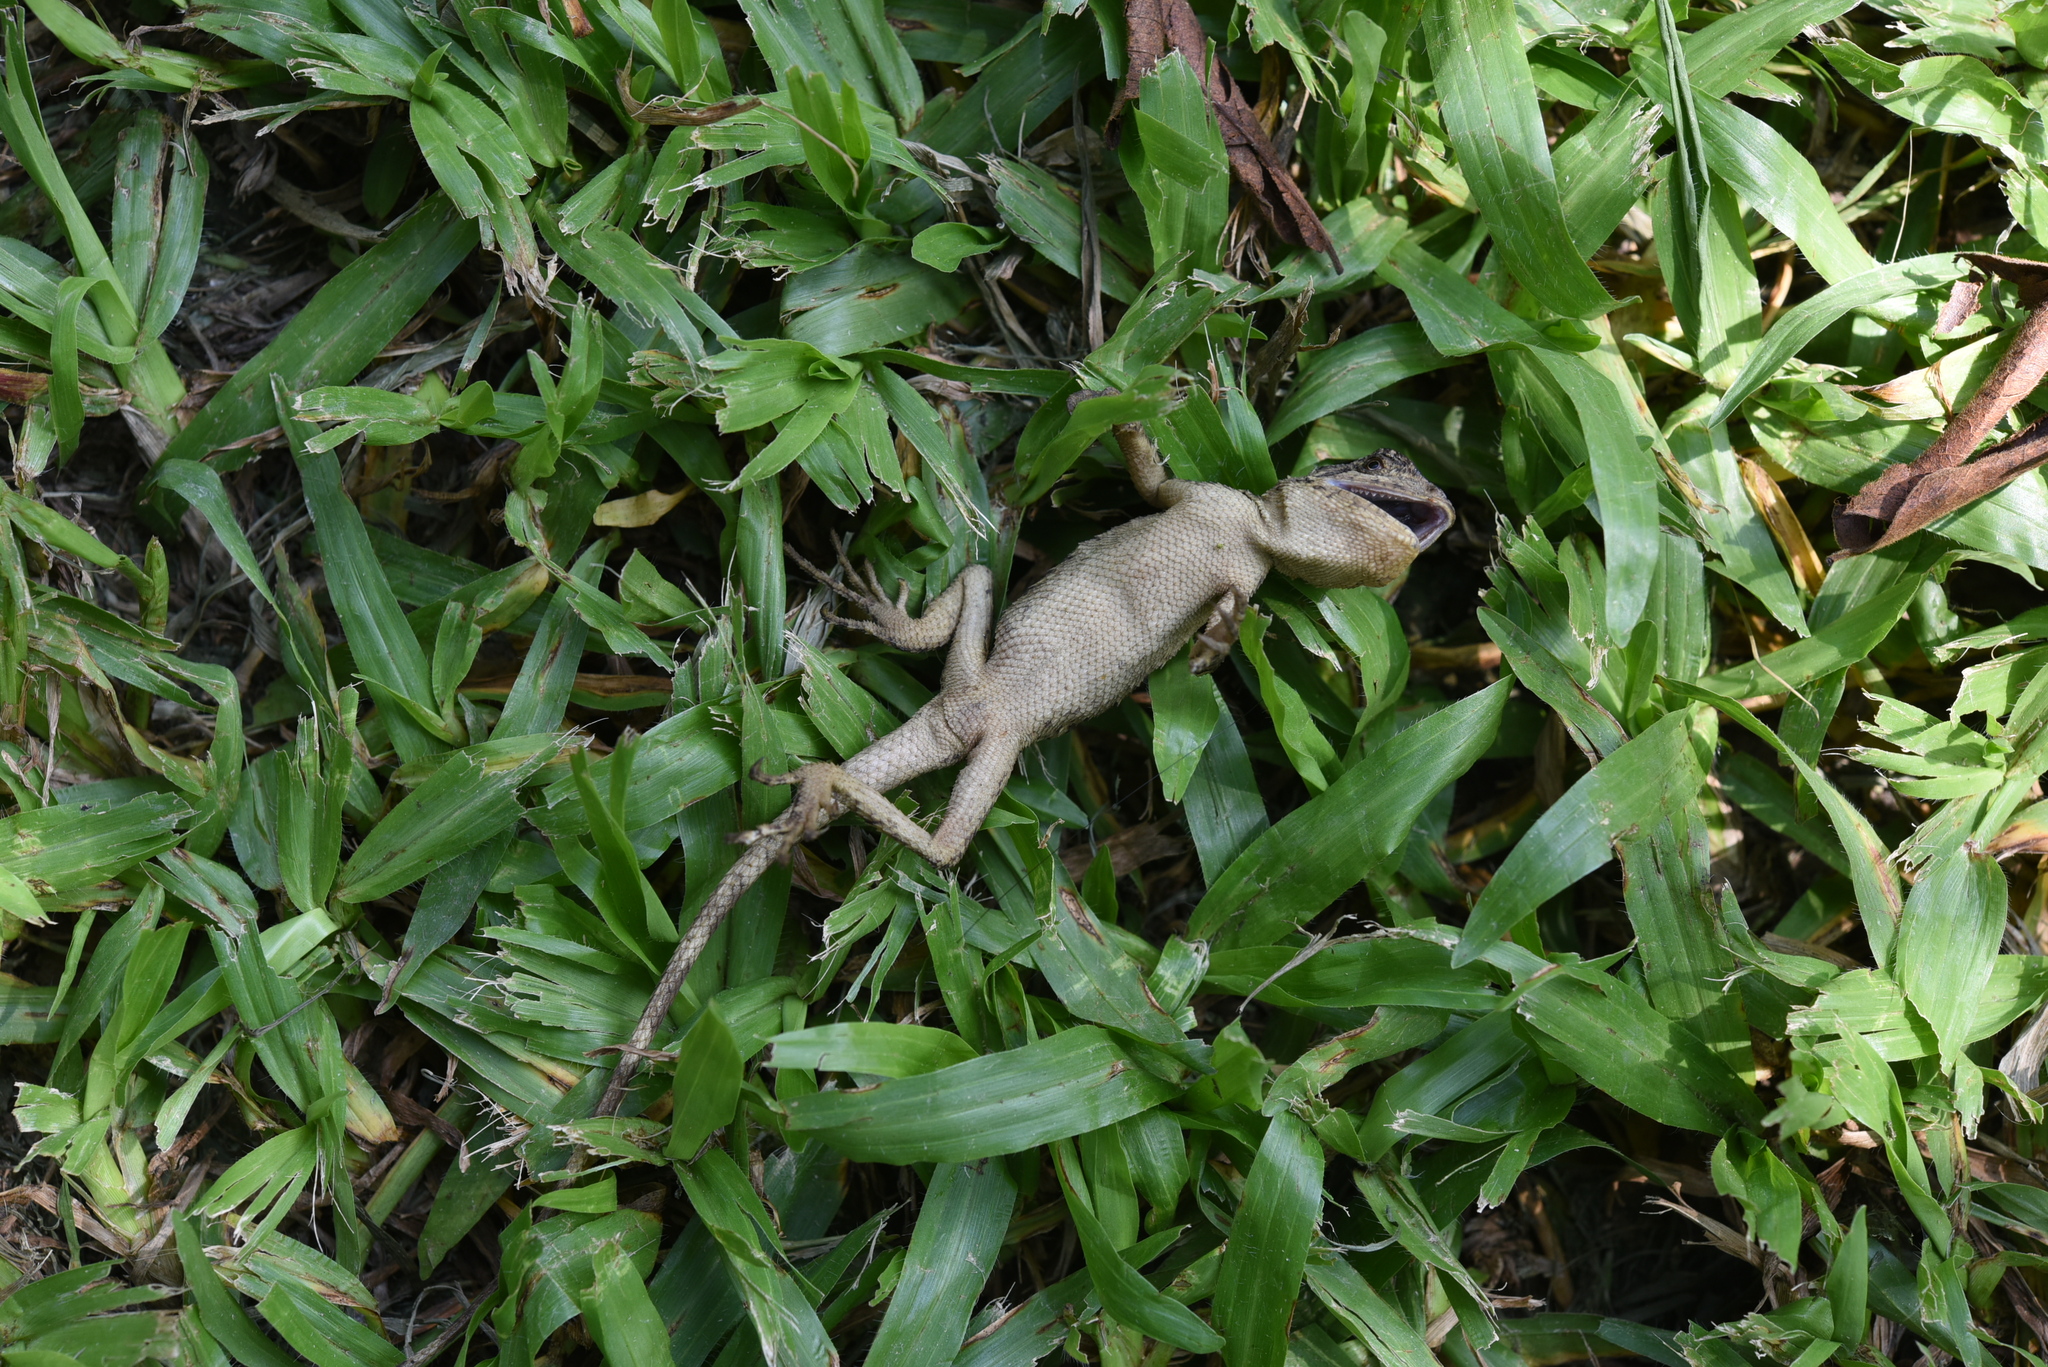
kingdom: Animalia
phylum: Chordata
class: Squamata
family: Agamidae
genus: Diploderma
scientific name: Diploderma swinhonis
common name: Taiwan japalure
